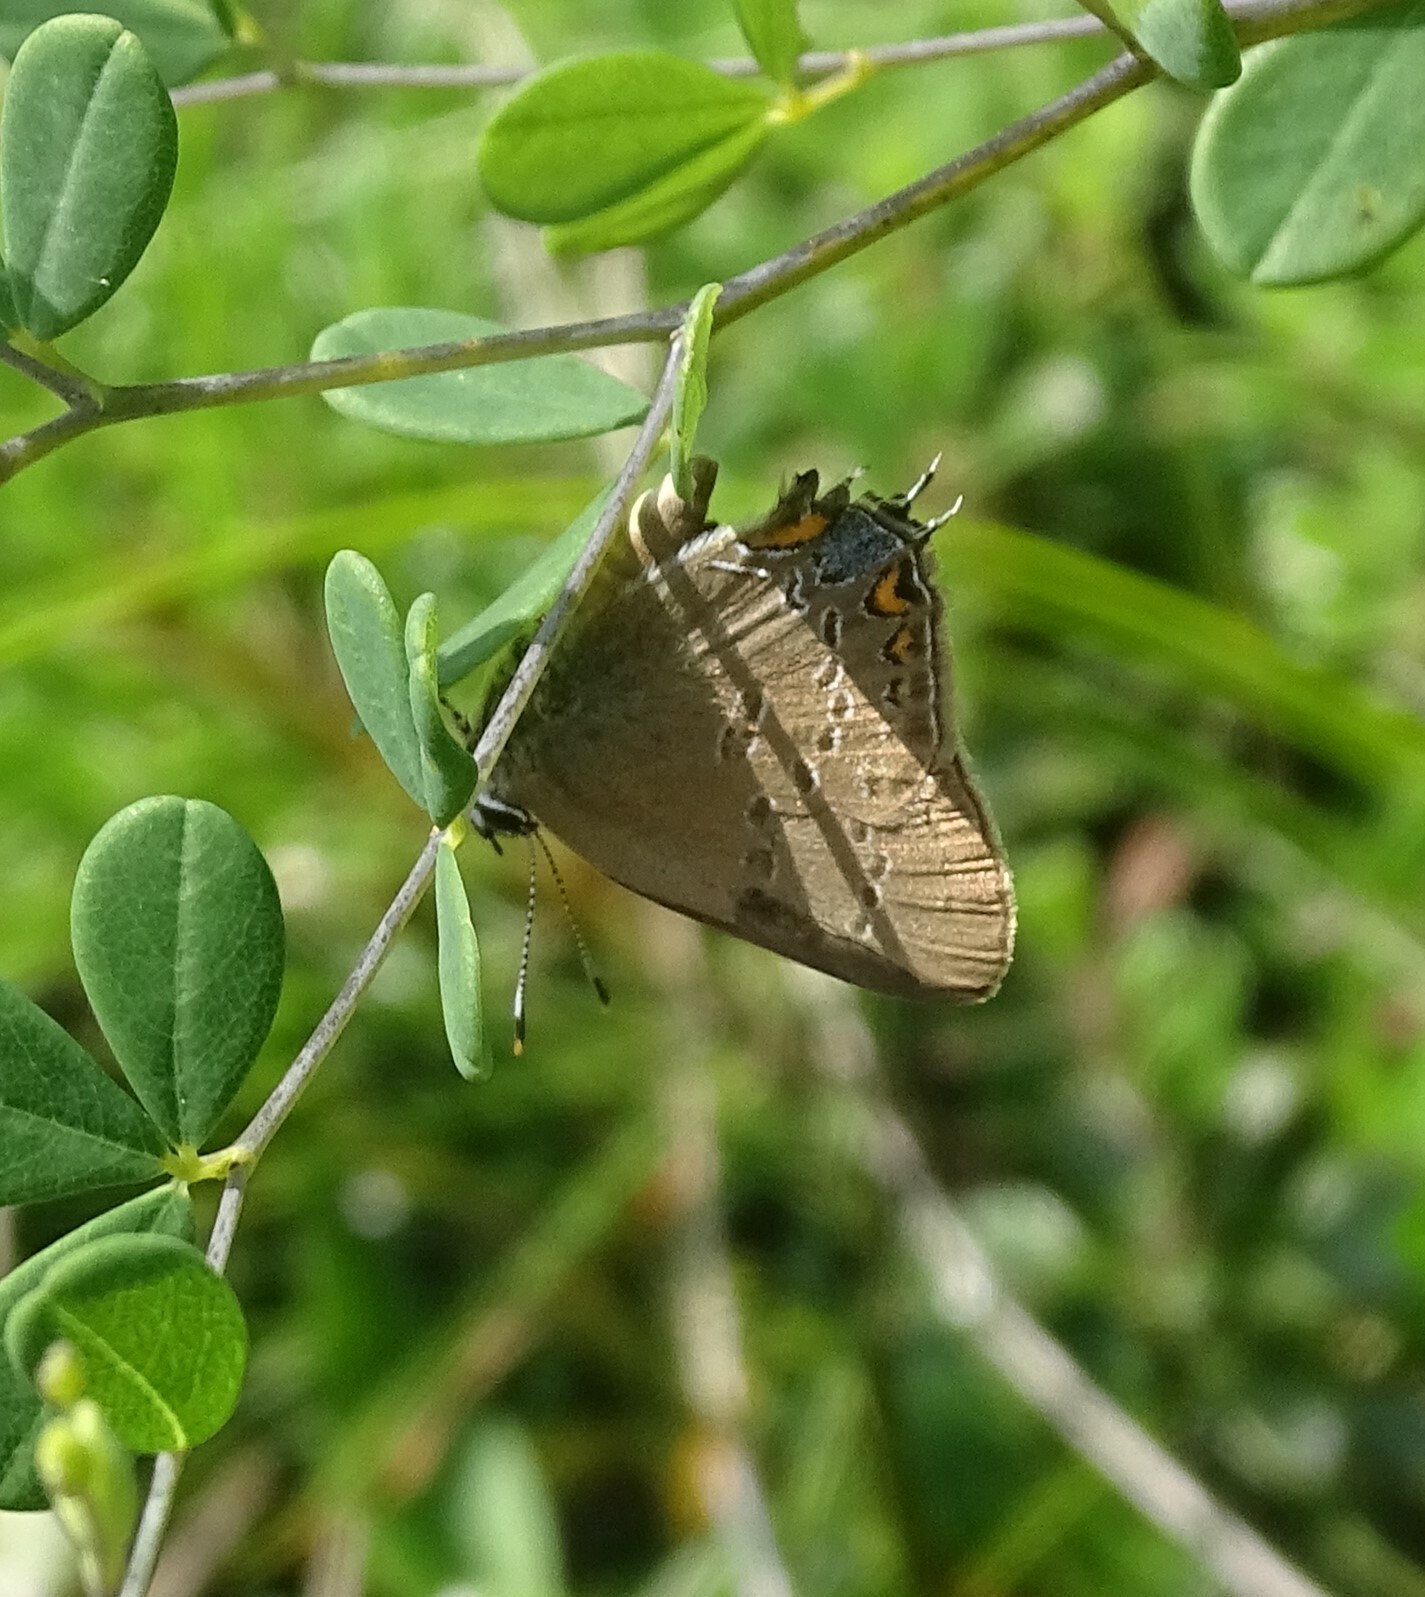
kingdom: Animalia
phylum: Arthropoda
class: Insecta
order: Lepidoptera
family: Lycaenidae
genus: Satyrium
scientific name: Satyrium edwardsii
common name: Edwards' hairstreak
